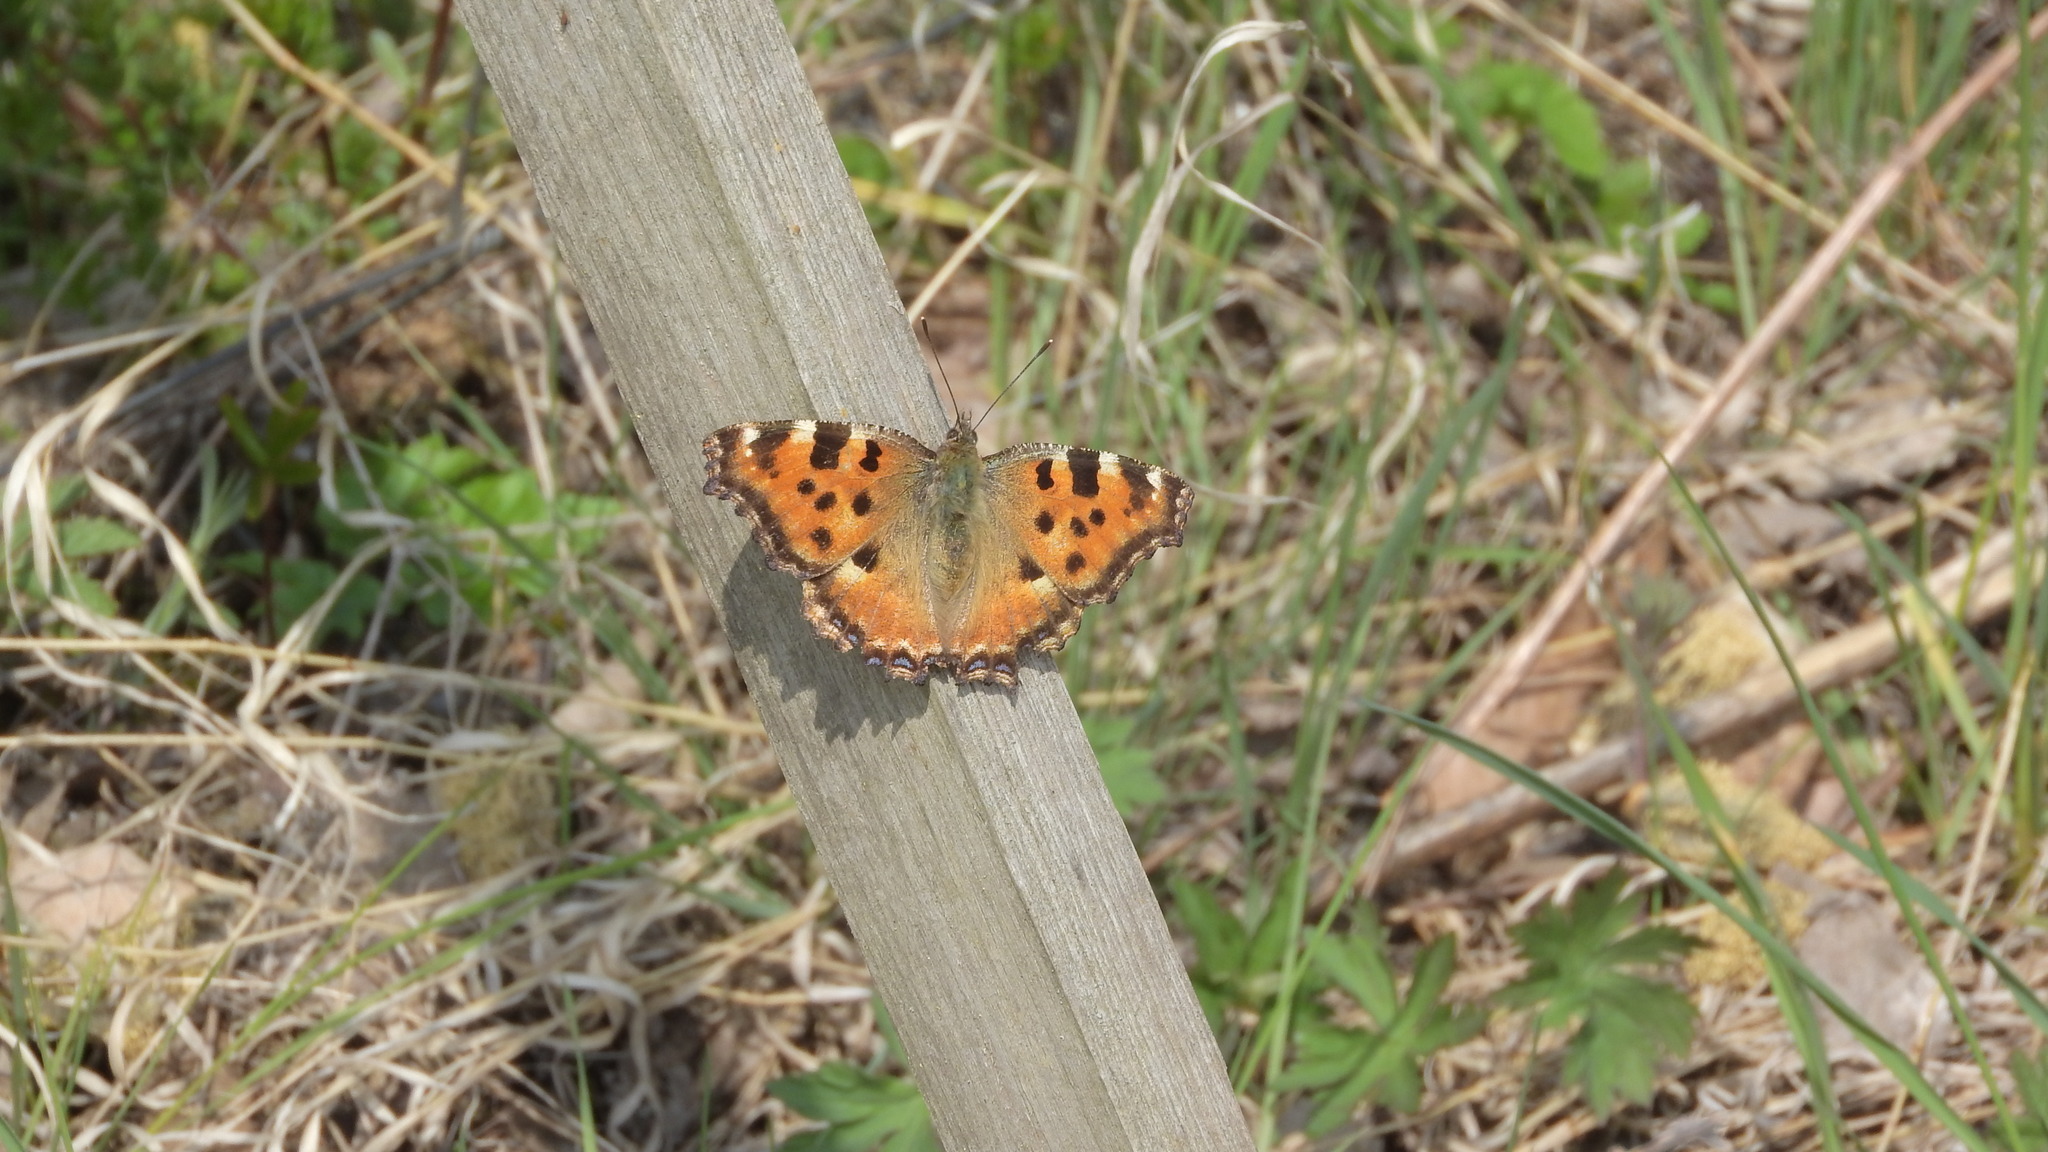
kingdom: Animalia
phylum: Arthropoda
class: Insecta
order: Lepidoptera
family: Nymphalidae
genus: Nymphalis
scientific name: Nymphalis polychloros
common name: Large tortoiseshell
